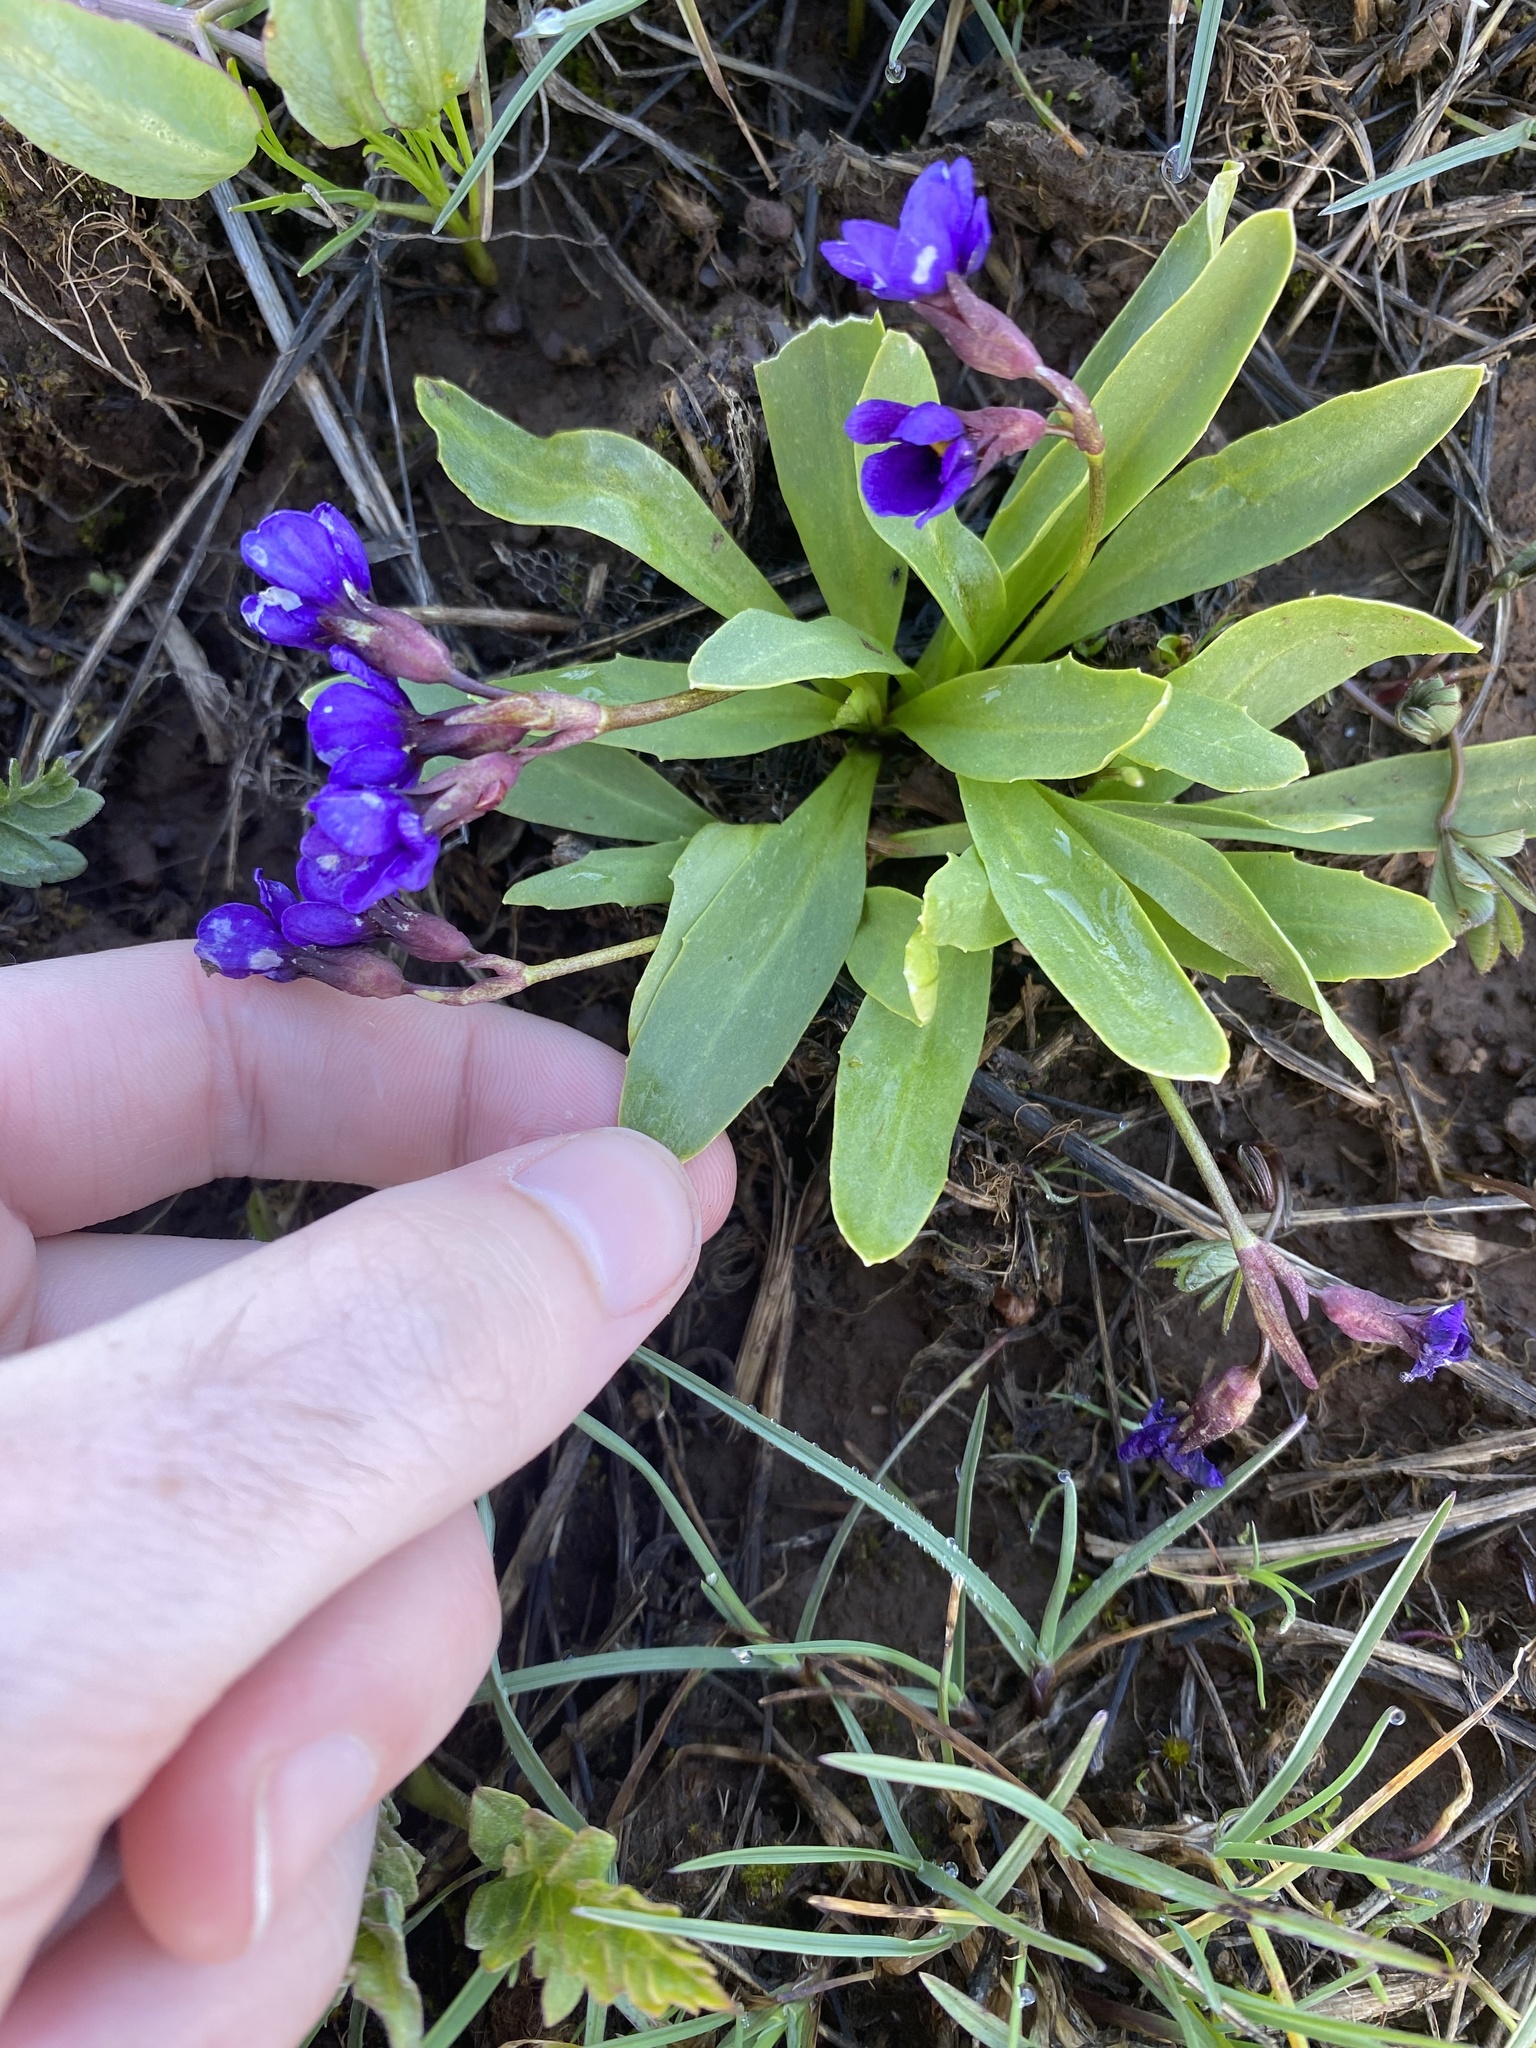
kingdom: Plantae
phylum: Tracheophyta
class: Magnoliopsida
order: Ericales
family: Primulaceae
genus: Primula
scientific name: Primula cusickiana
